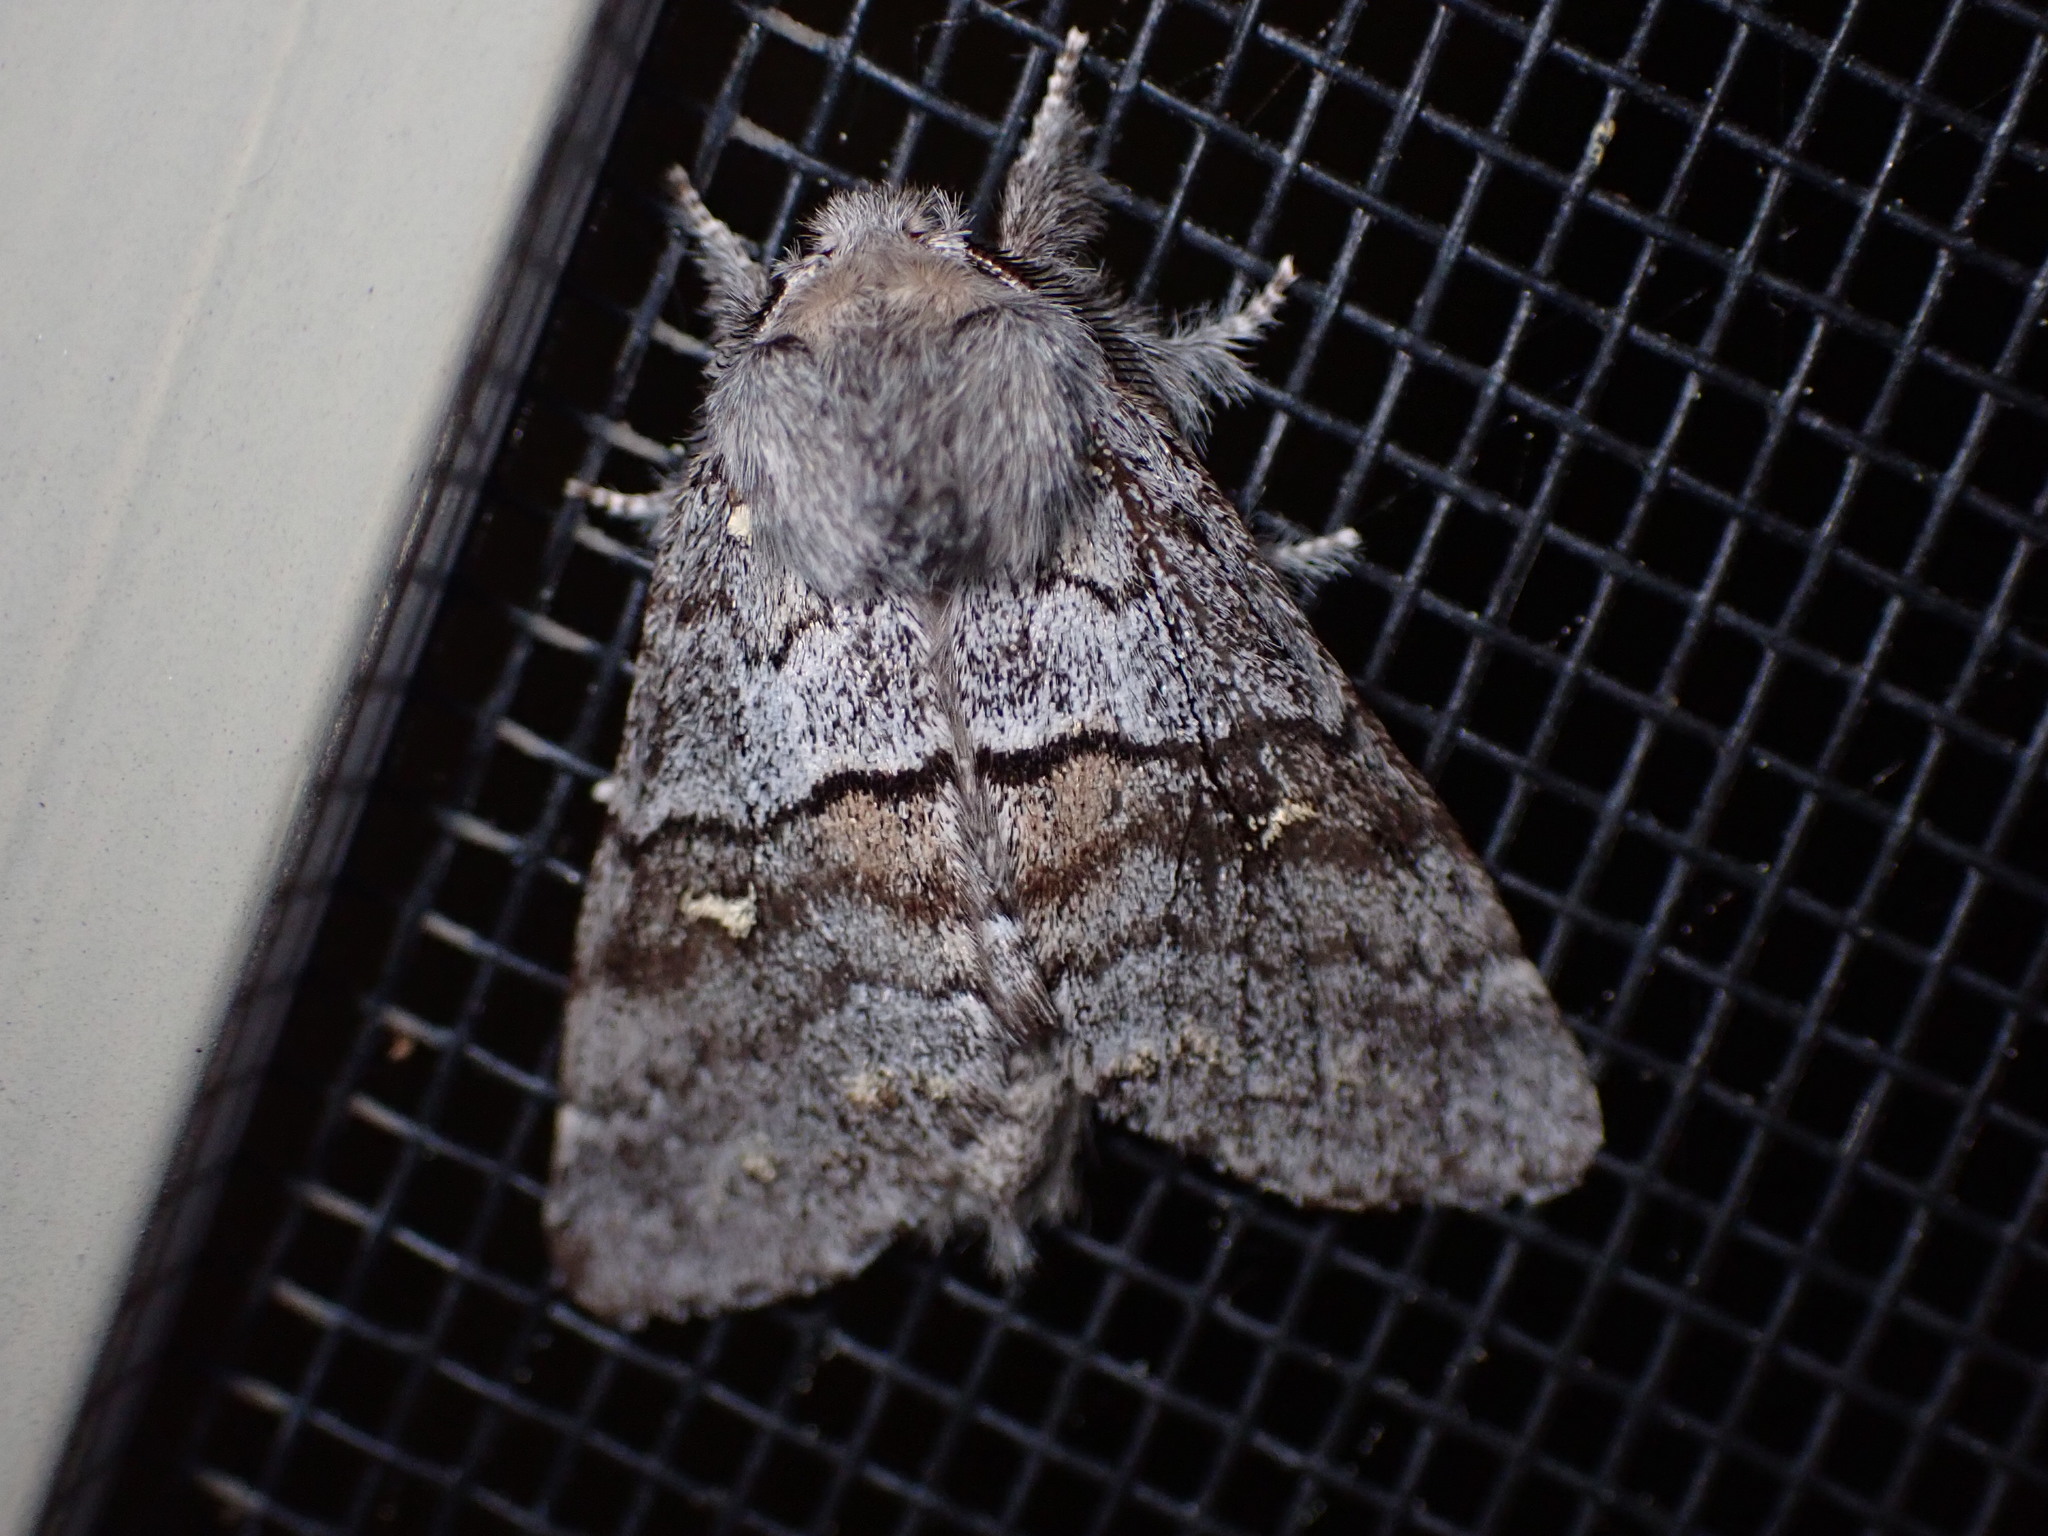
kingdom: Animalia
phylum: Arthropoda
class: Insecta
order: Lepidoptera
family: Notodontidae
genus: Gluphisia
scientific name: Gluphisia avimacula
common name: Four-spotted gluphisia moth
